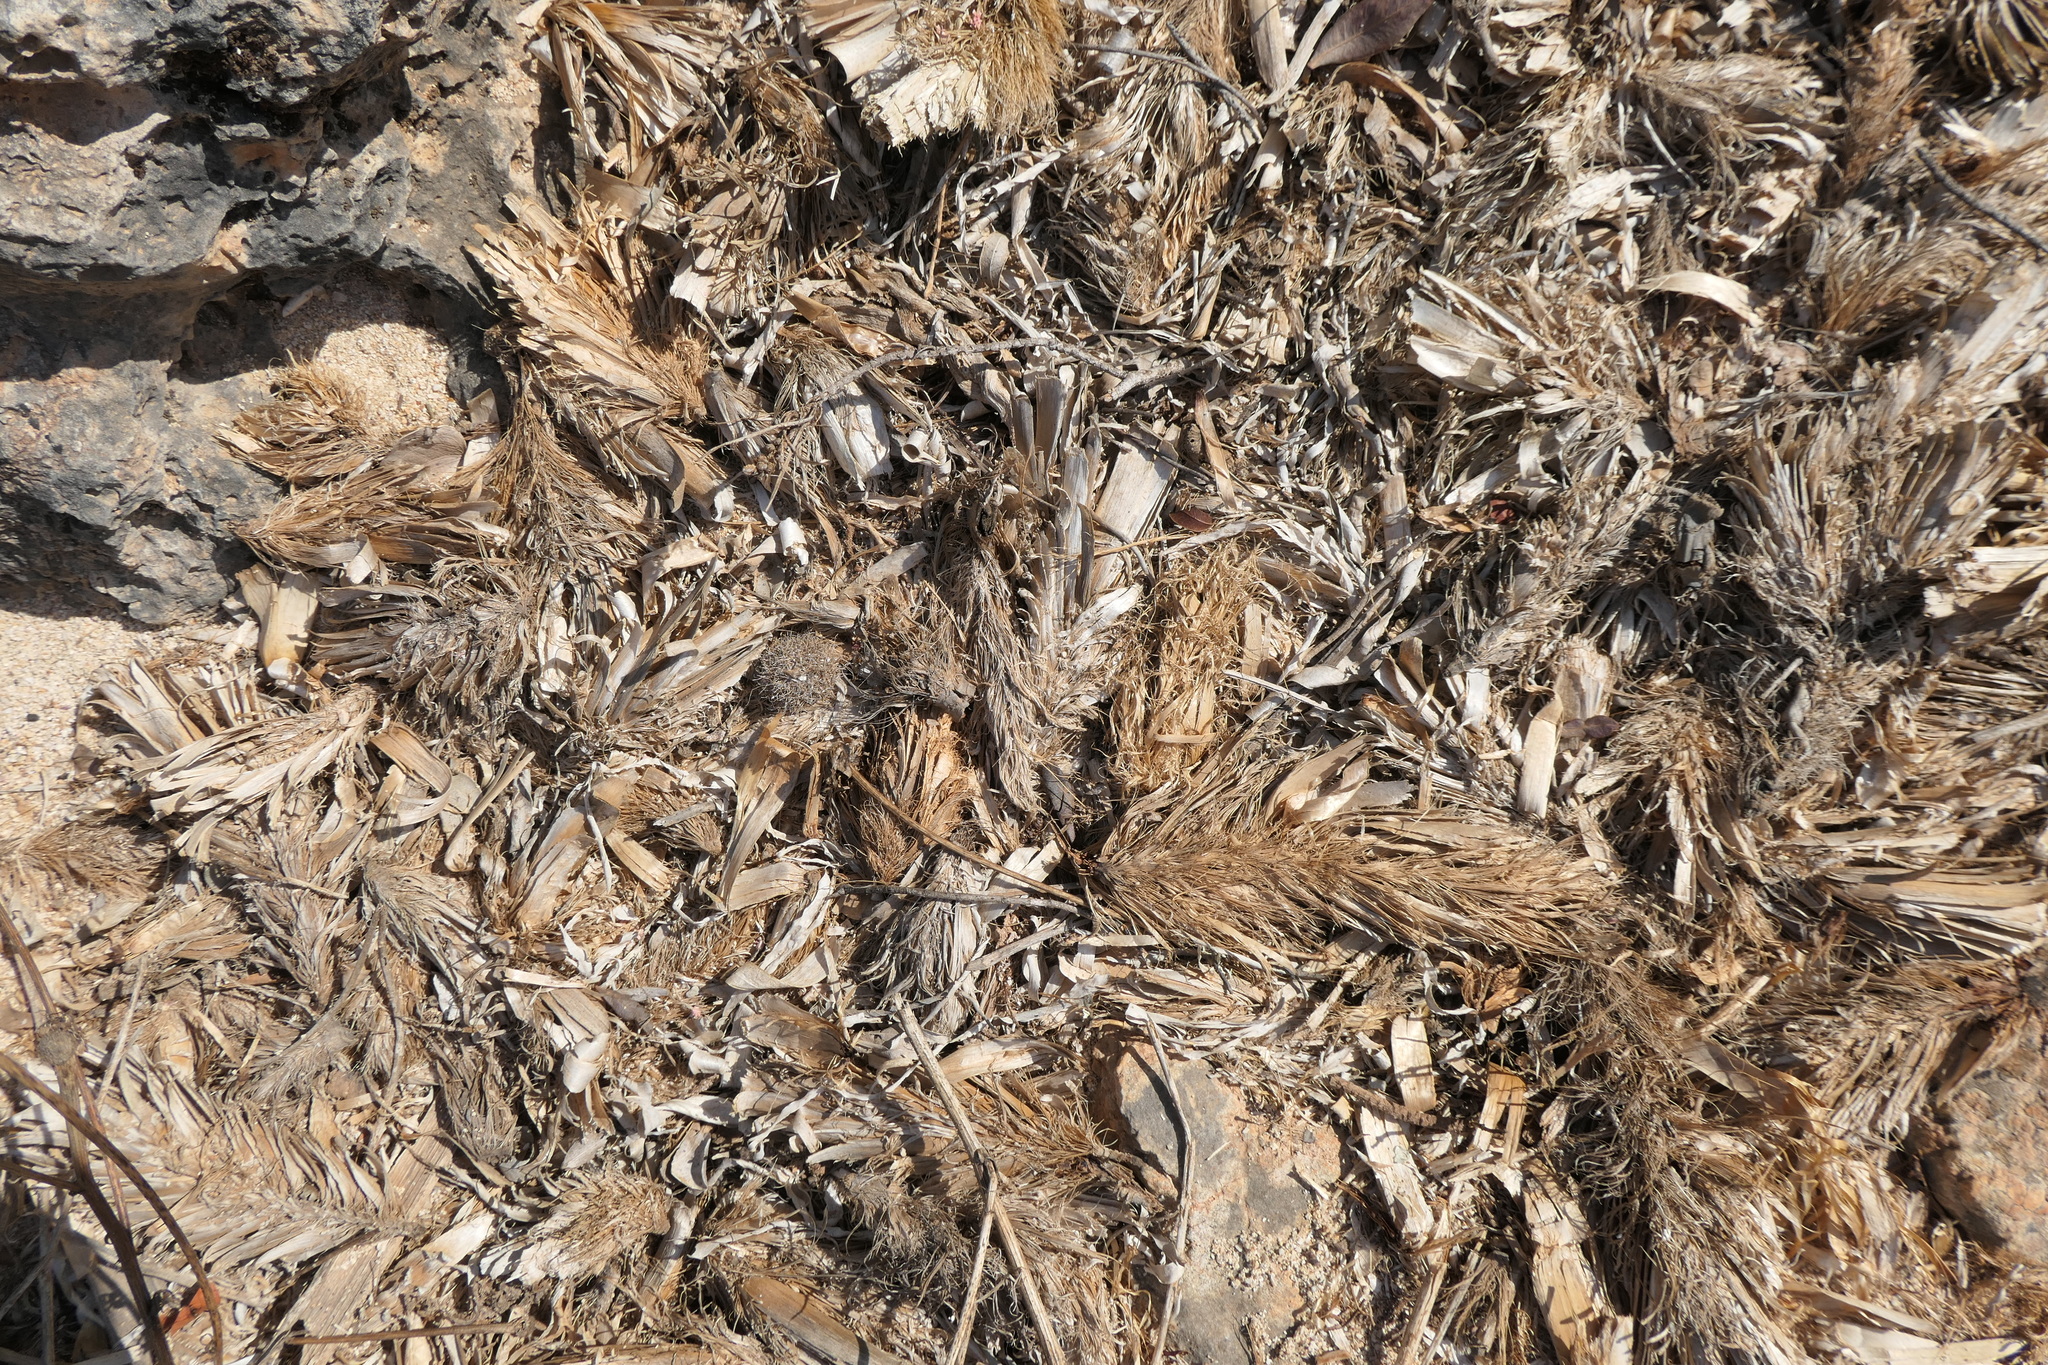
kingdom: Plantae
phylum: Tracheophyta
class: Liliopsida
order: Alismatales
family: Posidoniaceae
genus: Posidonia
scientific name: Posidonia oceanica
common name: Mediterranean tapeweed
